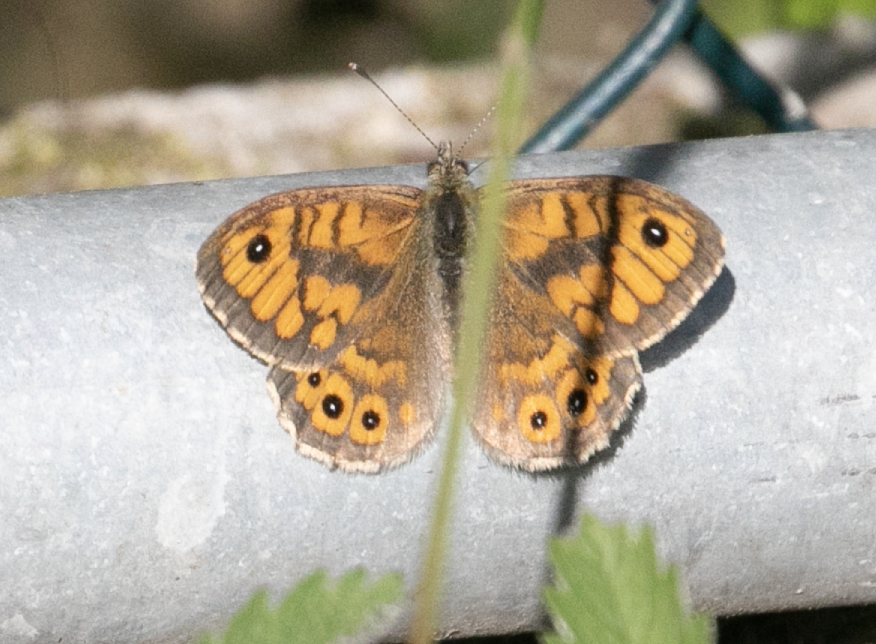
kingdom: Animalia
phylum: Arthropoda
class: Insecta
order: Lepidoptera
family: Nymphalidae
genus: Pararge
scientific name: Pararge Lasiommata megera
